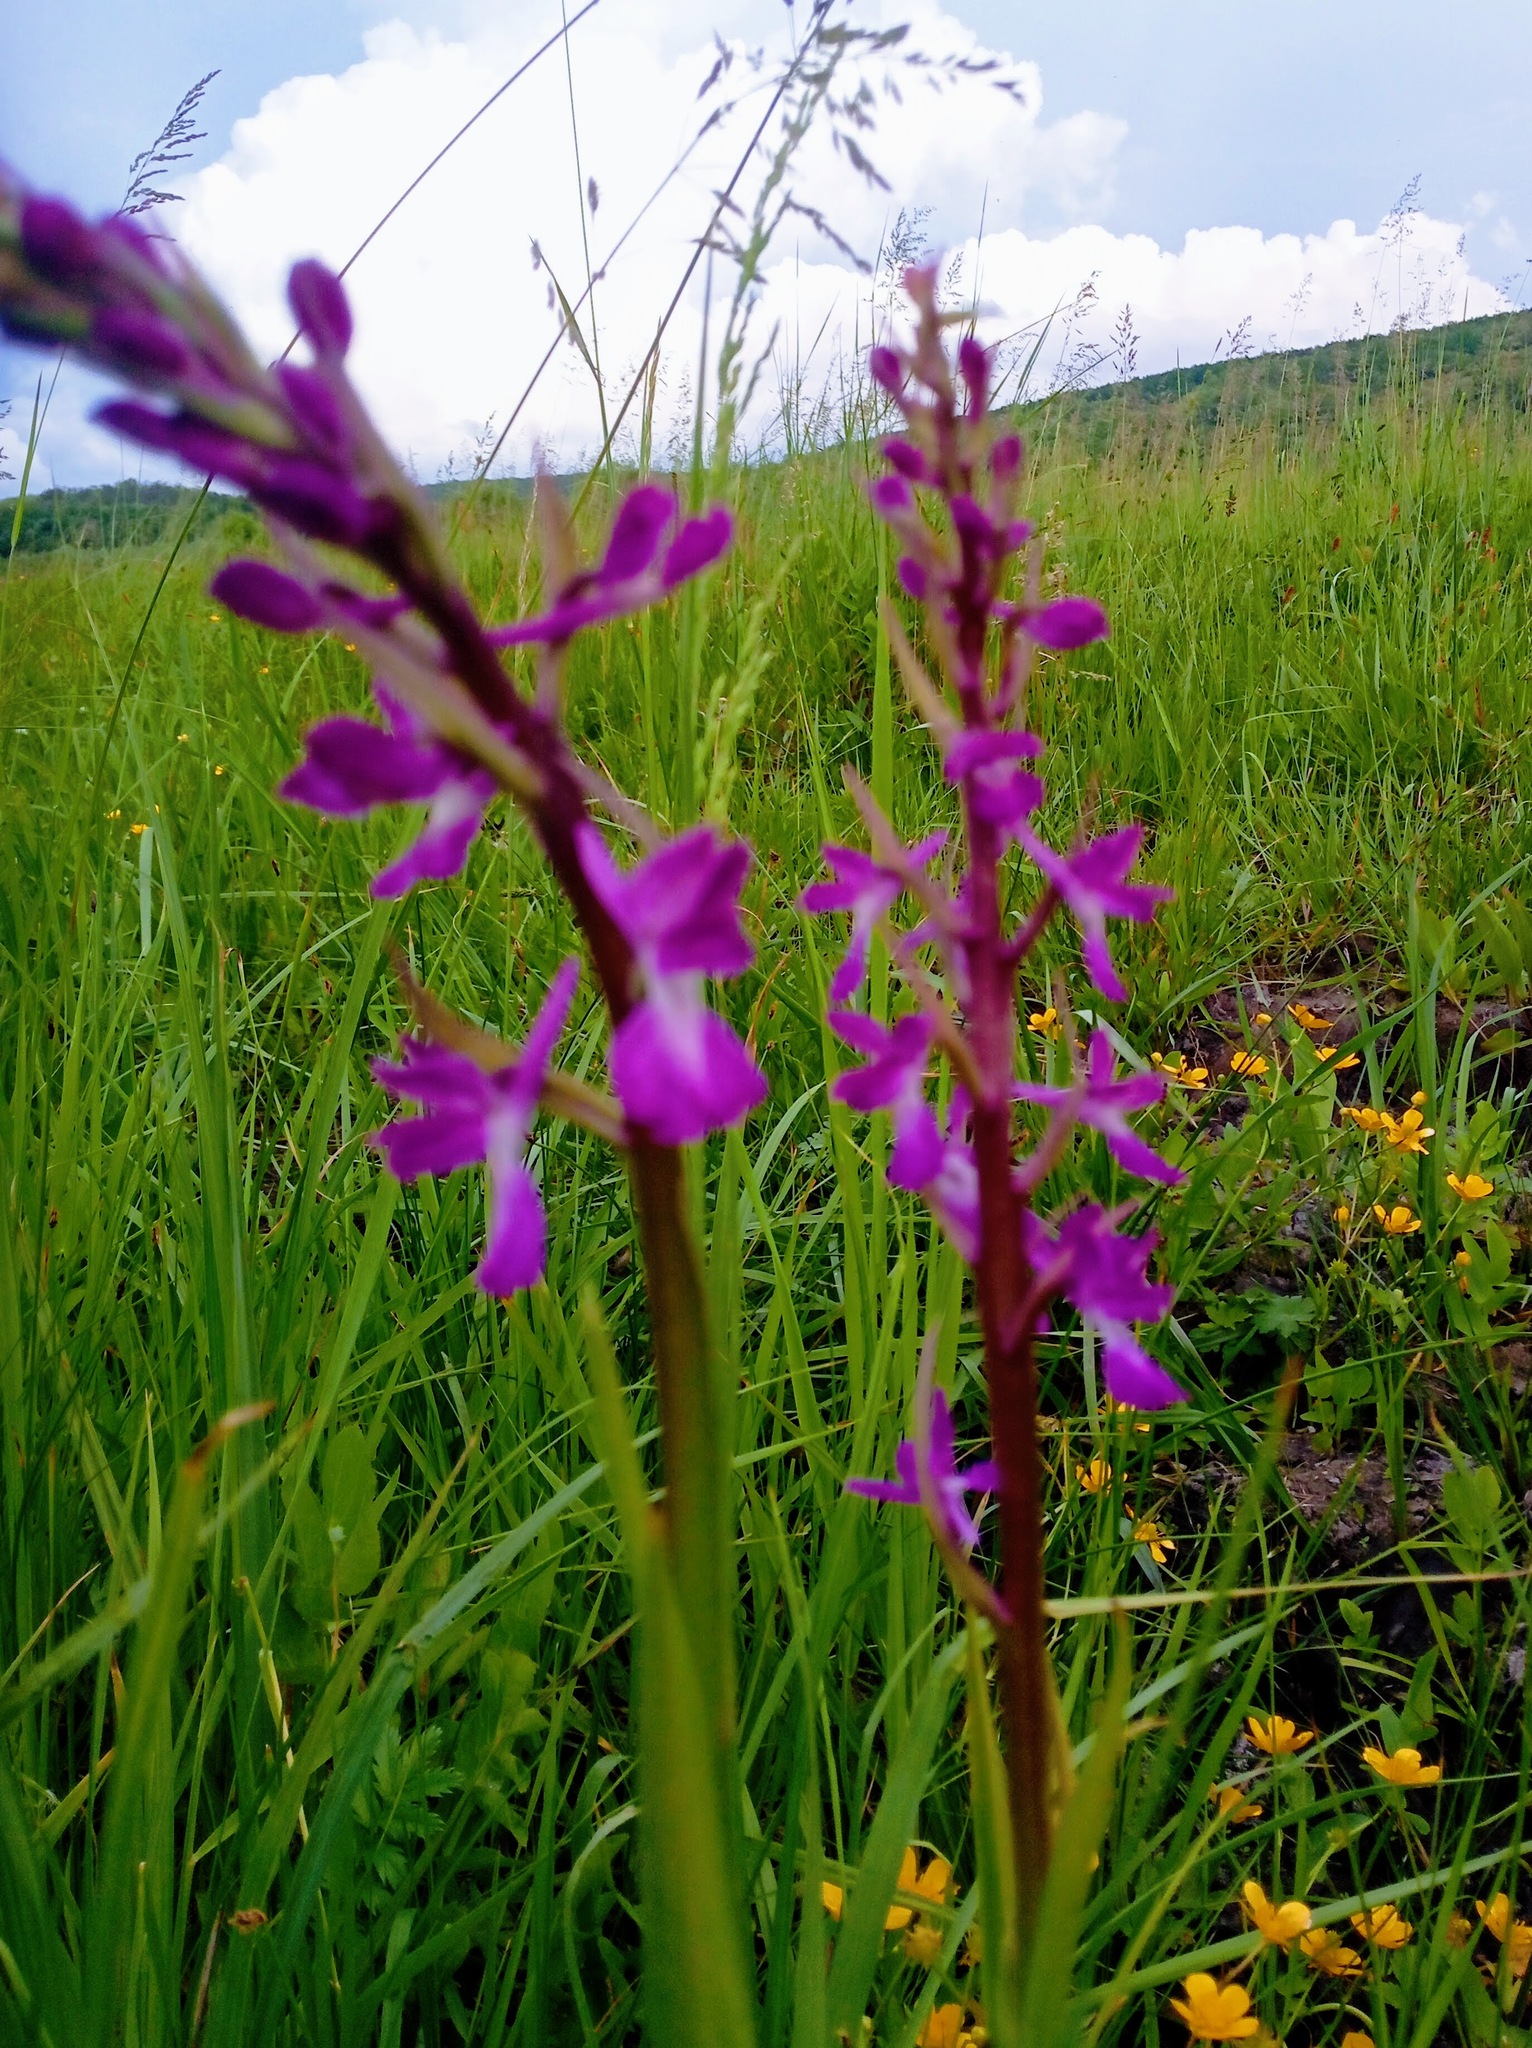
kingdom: Plantae
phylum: Tracheophyta
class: Liliopsida
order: Asparagales
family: Orchidaceae
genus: Anacamptis
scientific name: Anacamptis palustris
